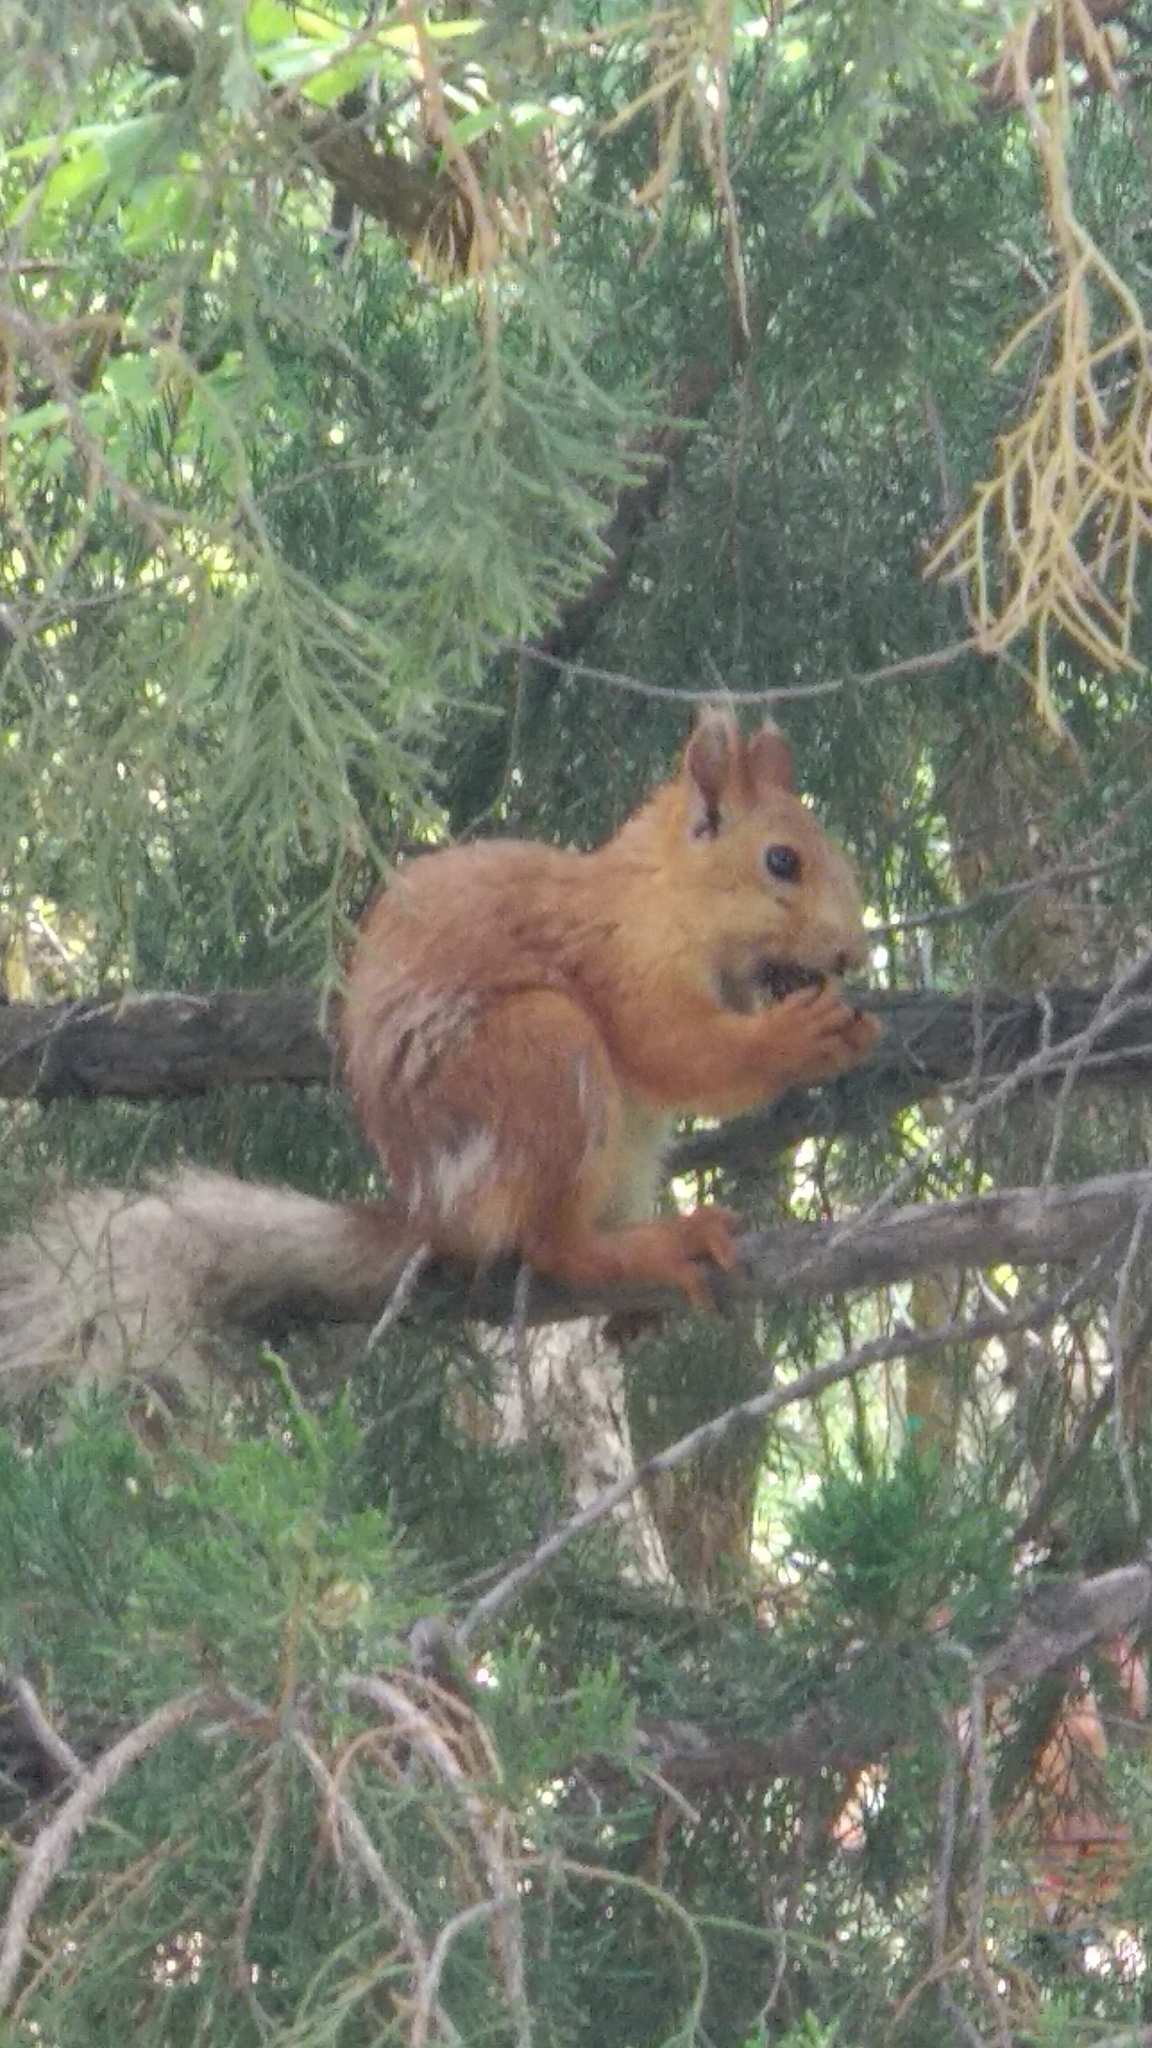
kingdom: Animalia
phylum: Chordata
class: Mammalia
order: Rodentia
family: Sciuridae
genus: Sciurus
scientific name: Sciurus vulgaris
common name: Eurasian red squirrel
